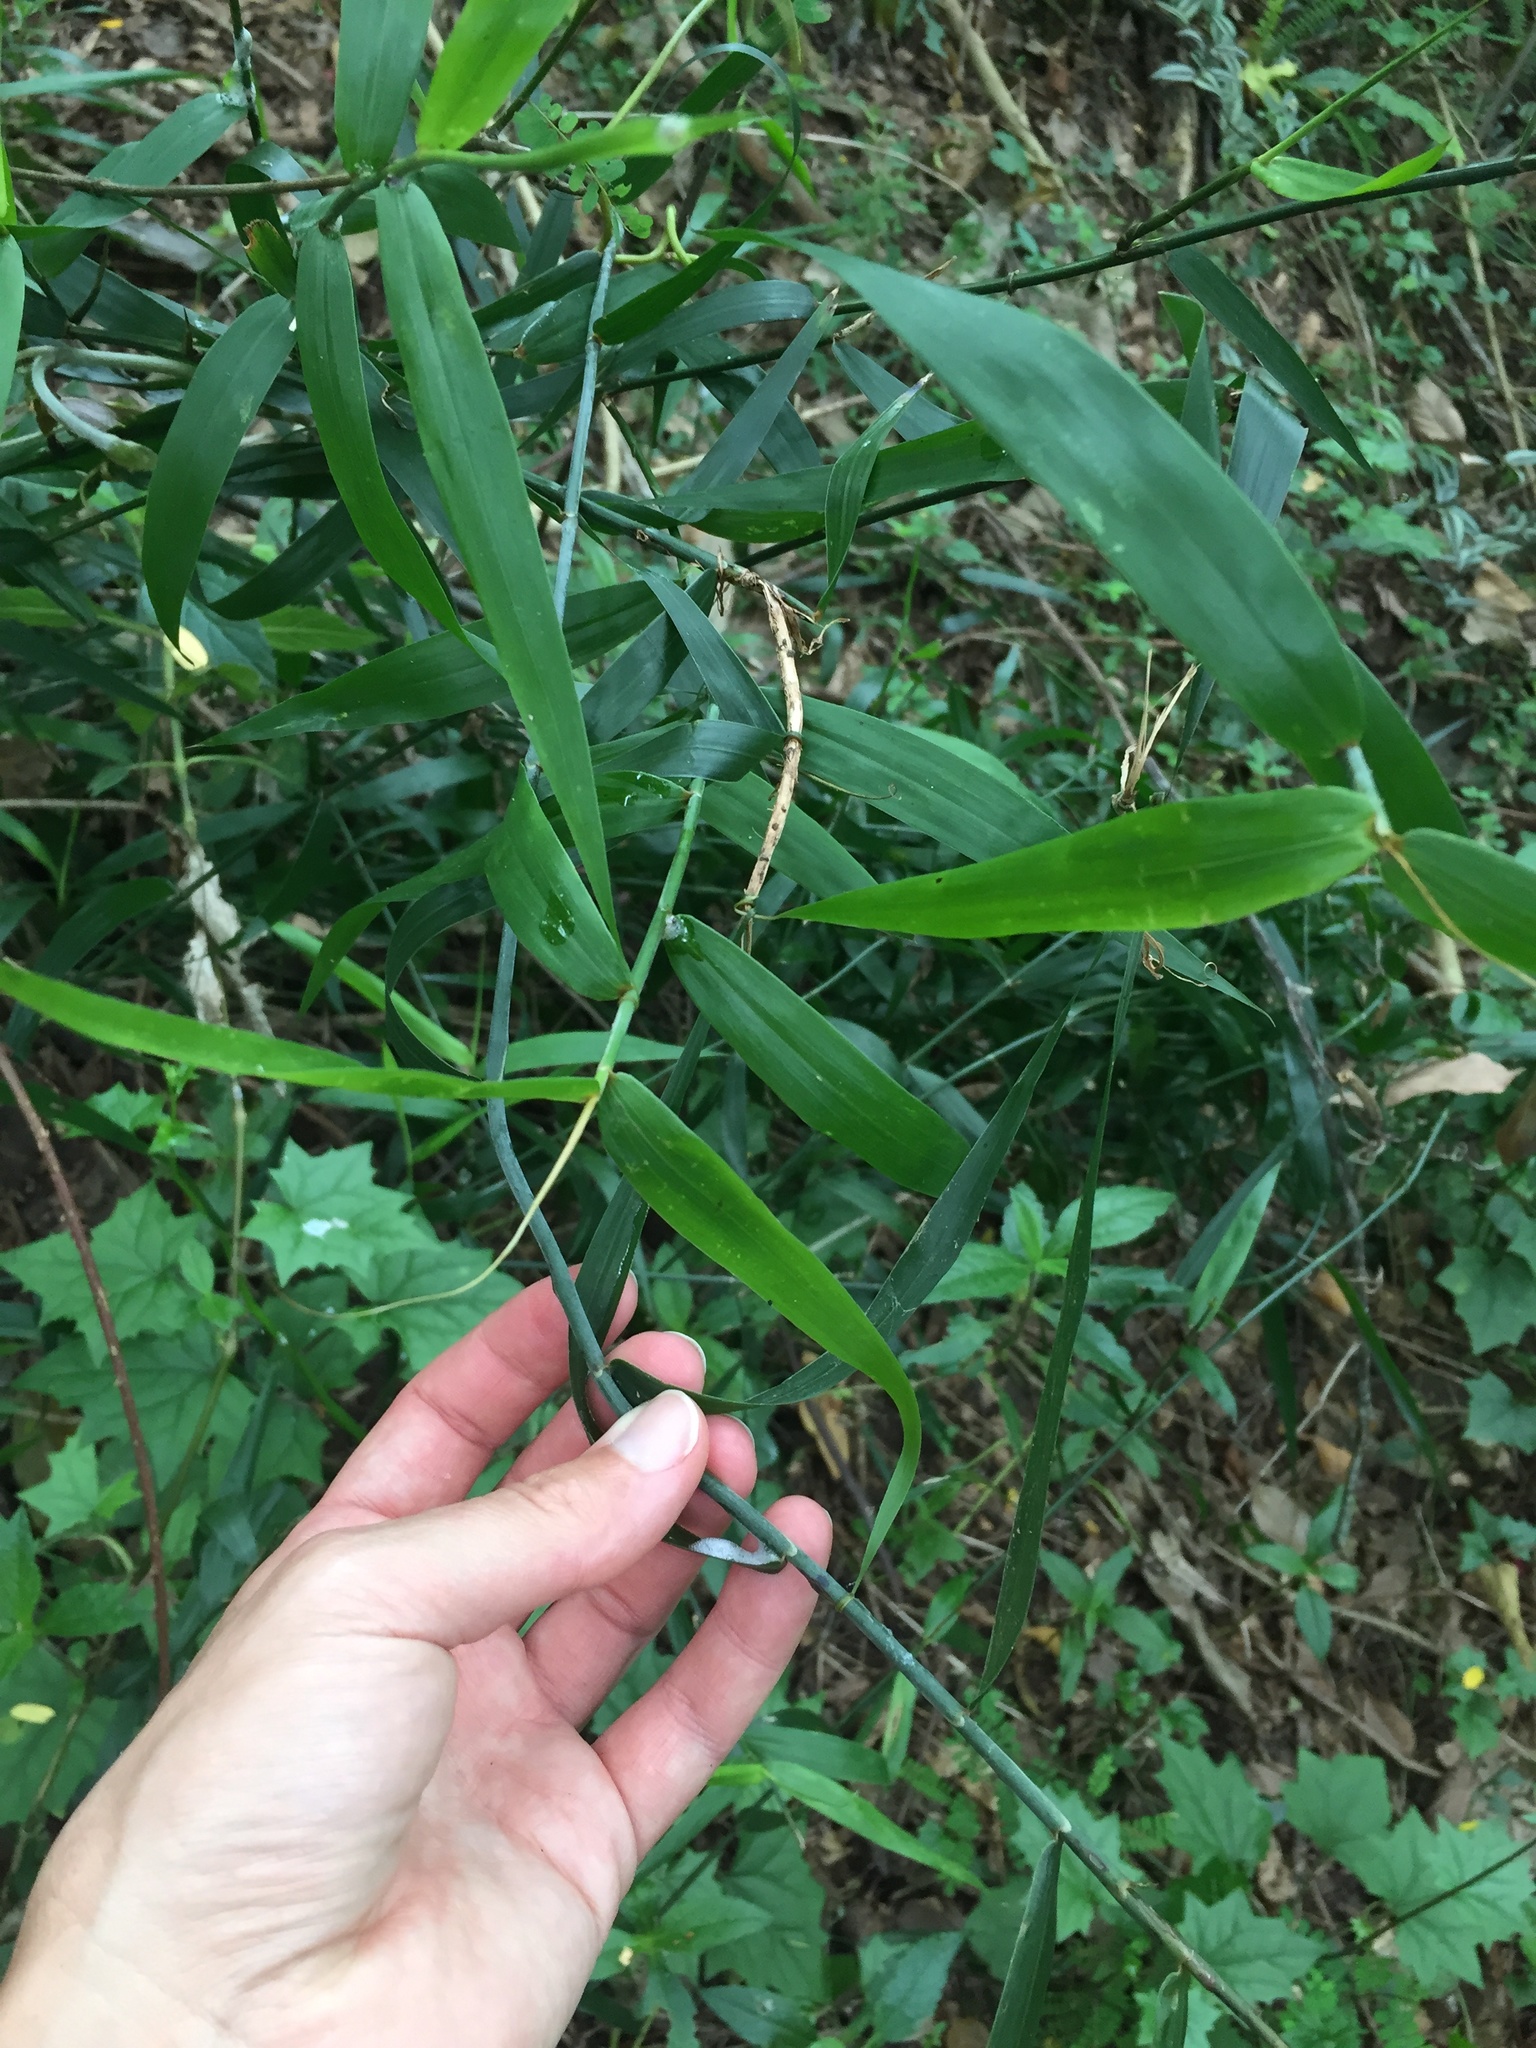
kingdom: Plantae
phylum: Tracheophyta
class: Liliopsida
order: Poales
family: Flagellariaceae
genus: Flagellaria
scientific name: Flagellaria guineensis
